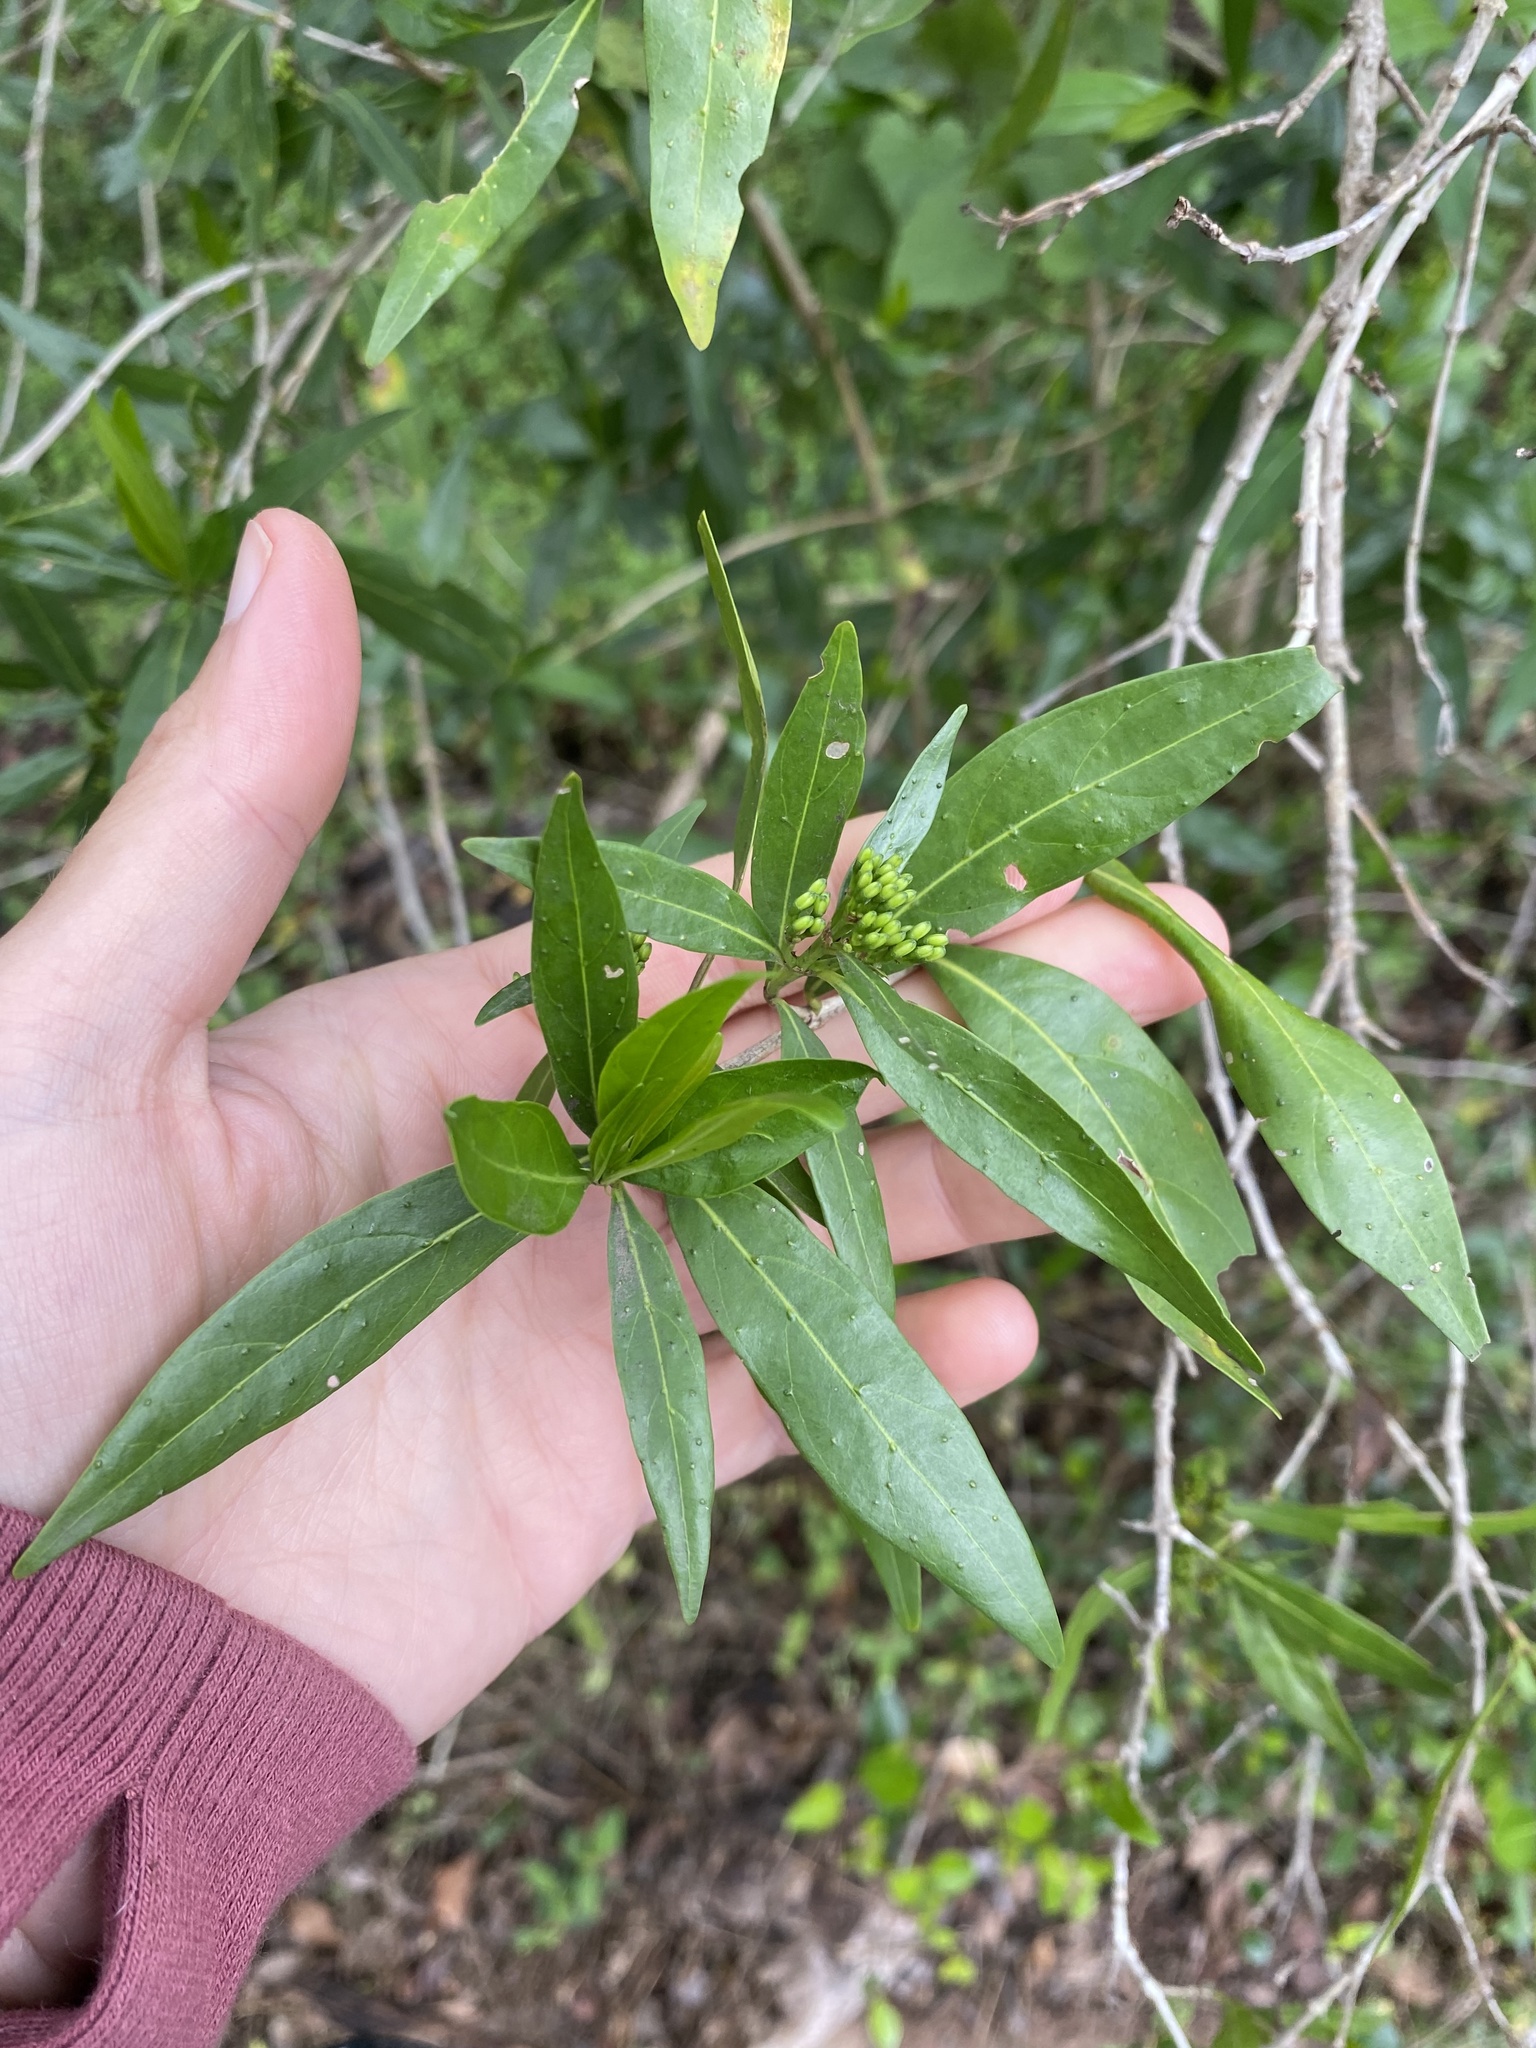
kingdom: Plantae
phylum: Tracheophyta
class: Magnoliopsida
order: Gentianales
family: Rubiaceae
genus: Pavetta
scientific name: Pavetta lanceolata
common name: Weeping brides-bush
